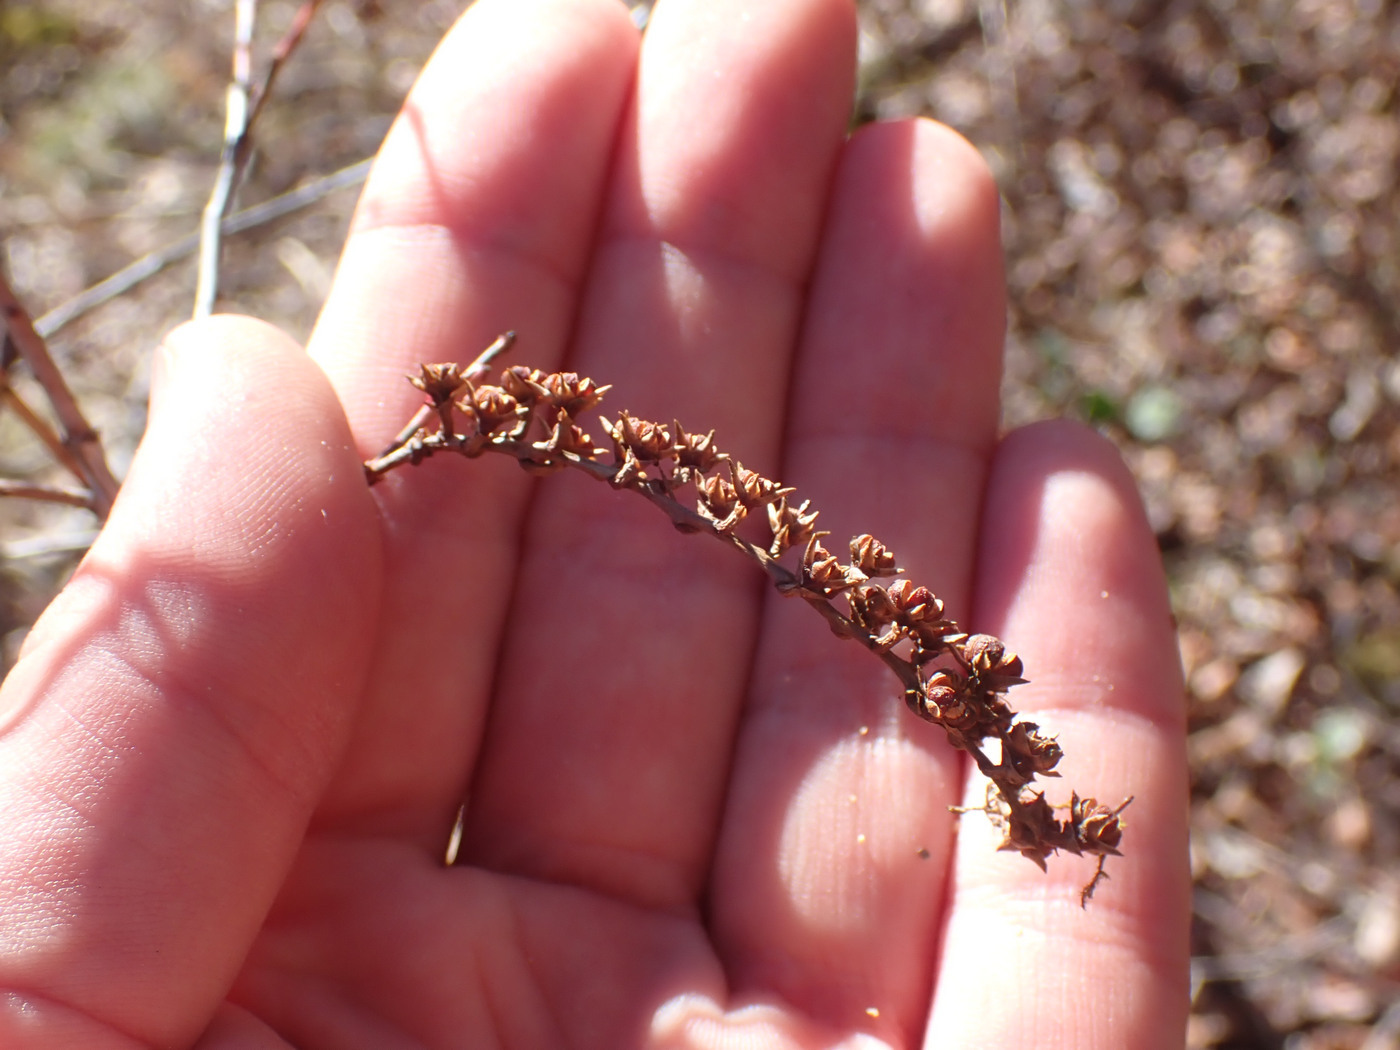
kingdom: Plantae
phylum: Tracheophyta
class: Magnoliopsida
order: Ericales
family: Ericaceae
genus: Eubotrys
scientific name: Eubotrys racemosa
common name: Fetterbush
